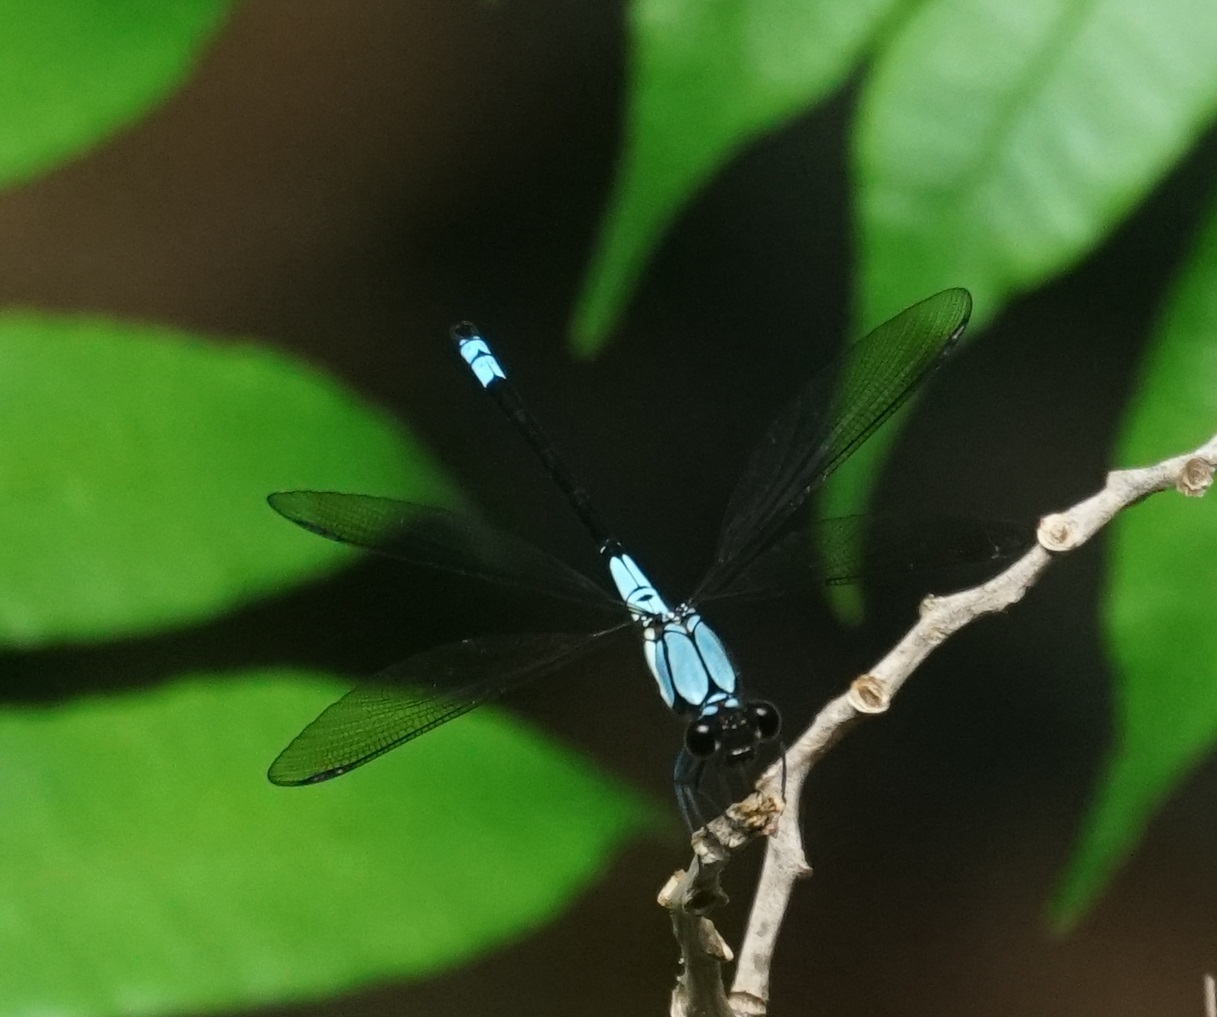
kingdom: Animalia
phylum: Arthropoda
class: Insecta
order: Odonata
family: Lestoideidae
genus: Diphlebia
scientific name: Diphlebia euphoeoides
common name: Tropical rockmaster
